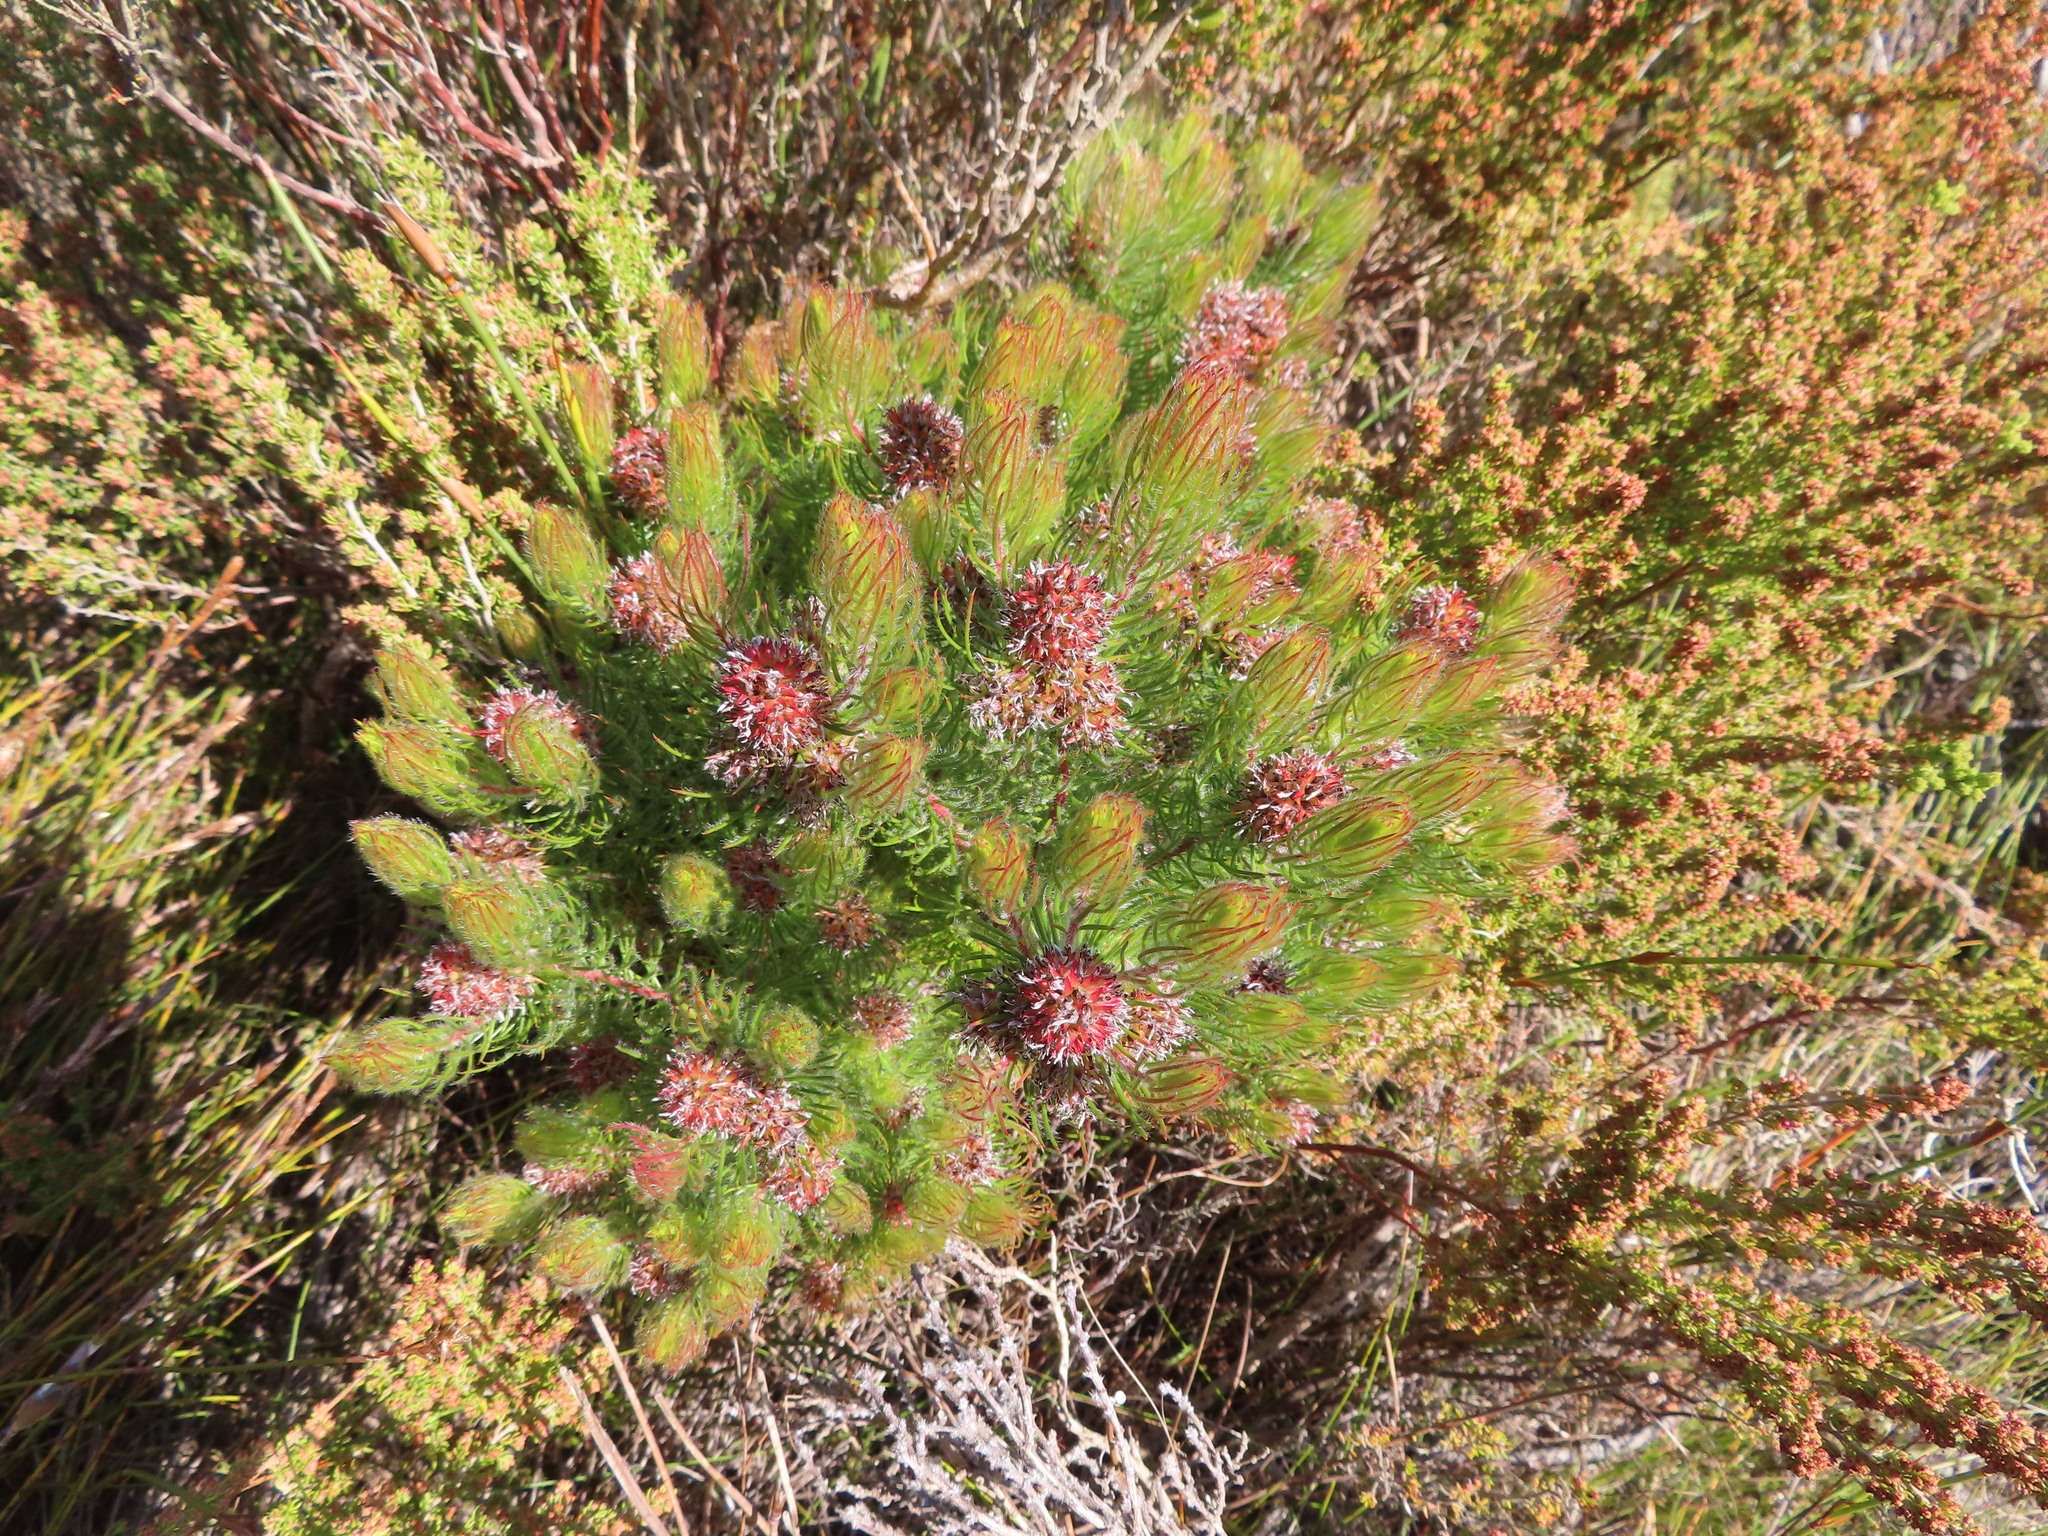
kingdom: Plantae
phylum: Tracheophyta
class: Magnoliopsida
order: Proteales
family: Proteaceae
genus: Spatalla
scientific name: Spatalla setacea
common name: Needle-leaf spoon
